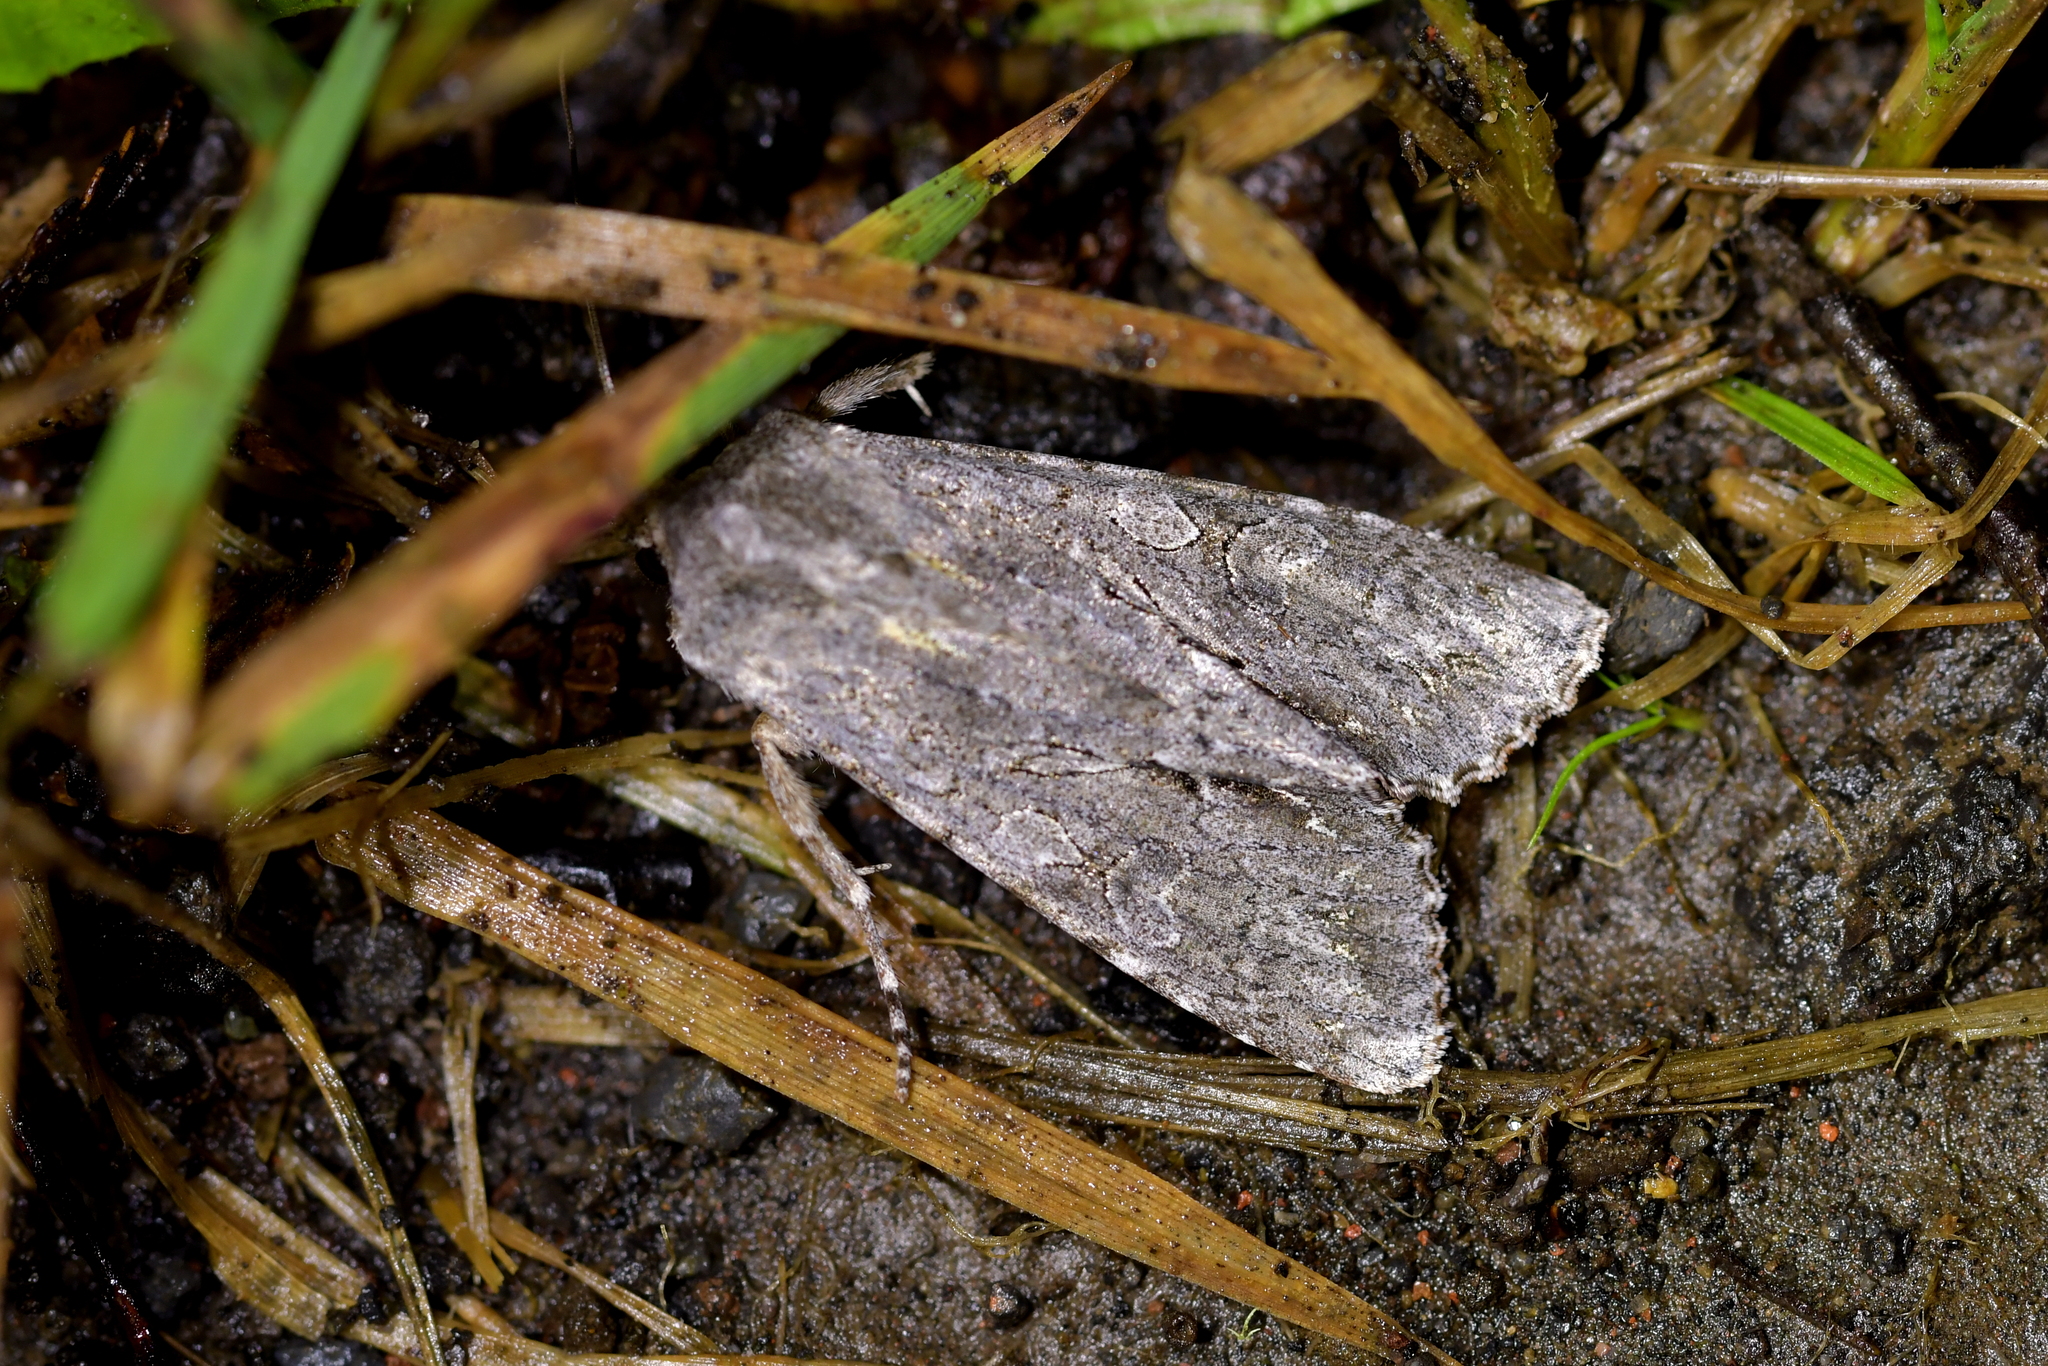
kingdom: Animalia
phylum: Arthropoda
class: Insecta
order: Lepidoptera
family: Noctuidae
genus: Ichneutica
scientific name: Ichneutica
